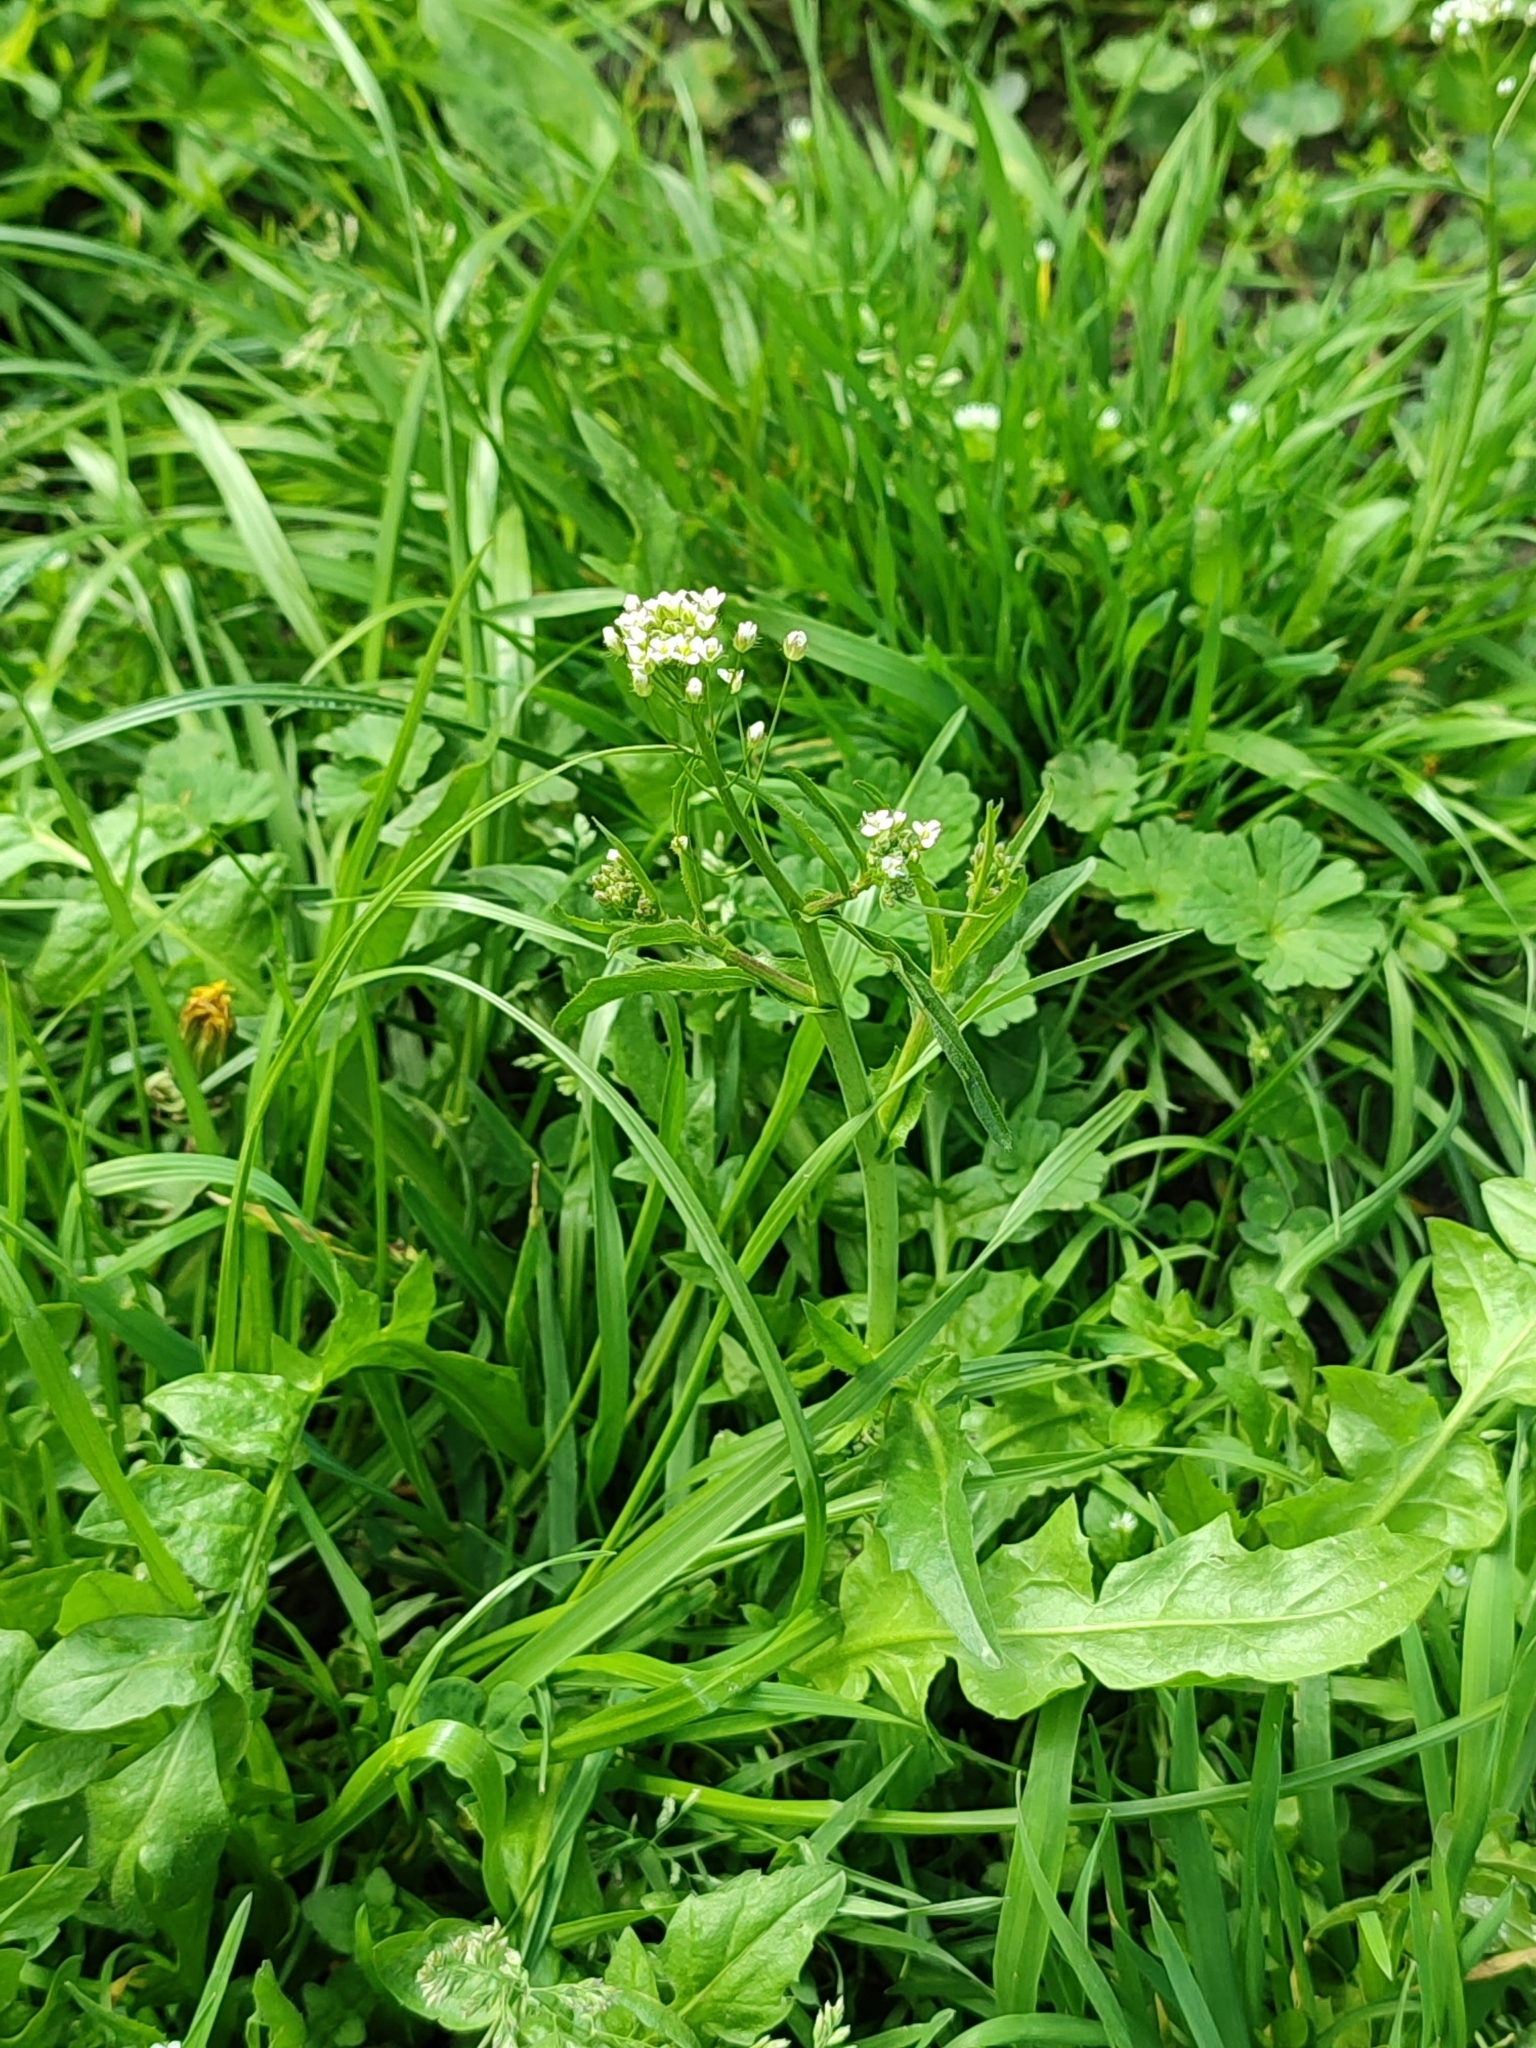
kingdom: Plantae
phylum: Tracheophyta
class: Magnoliopsida
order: Brassicales
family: Brassicaceae
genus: Capsella
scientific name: Capsella bursa-pastoris
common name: Shepherd's purse
